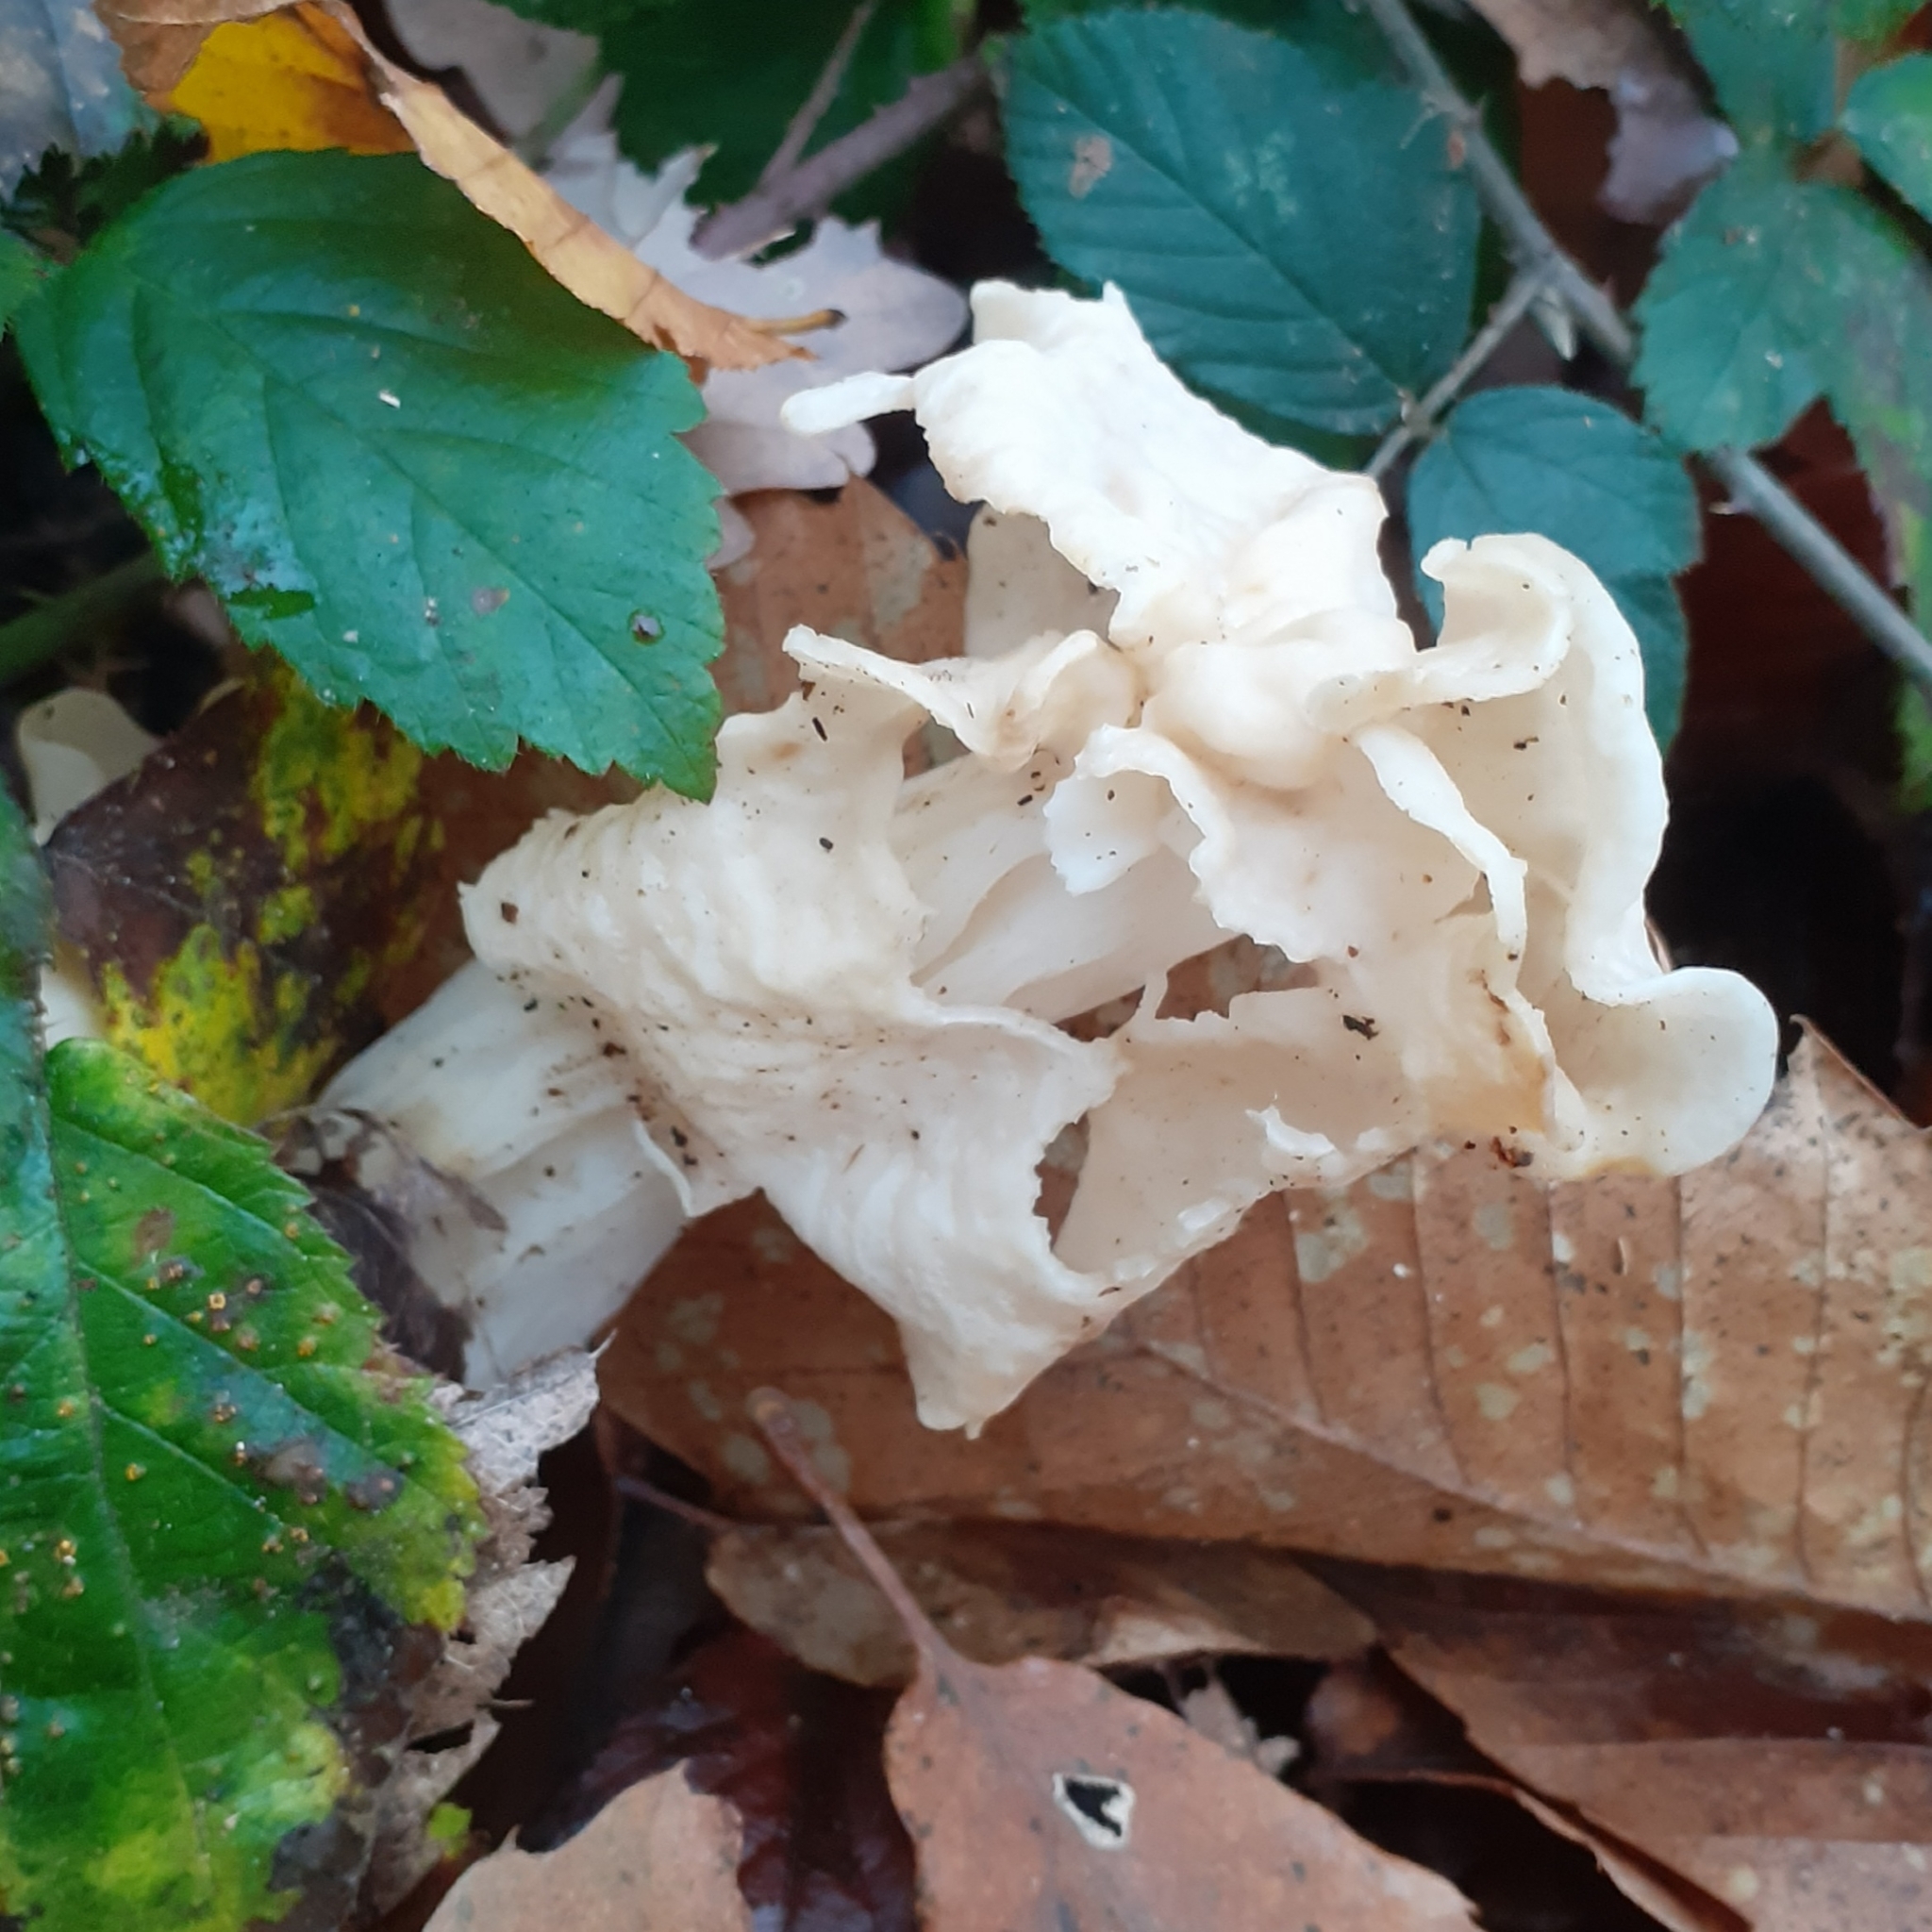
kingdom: Fungi
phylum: Ascomycota
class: Pezizomycetes
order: Pezizales
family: Helvellaceae
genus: Helvella
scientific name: Helvella crispa
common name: White saddle
